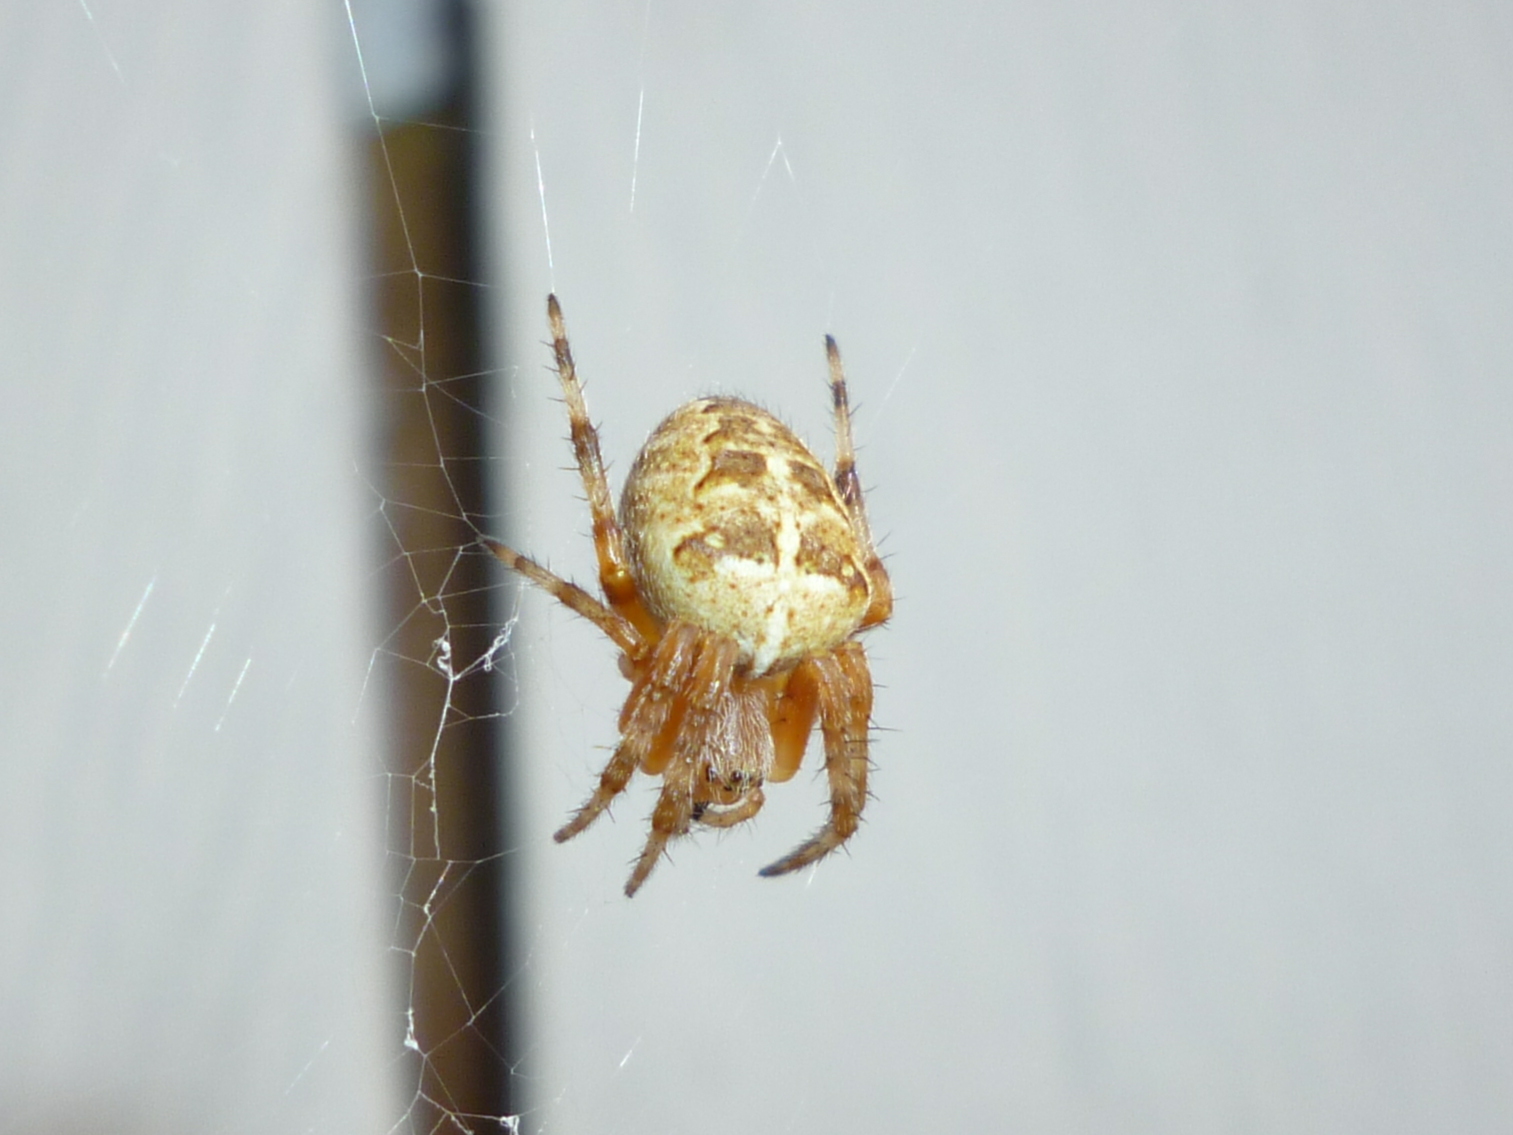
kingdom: Animalia
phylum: Arthropoda
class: Arachnida
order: Araneae
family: Araneidae
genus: Araneus
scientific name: Araneus diadematus
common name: Cross orbweaver
